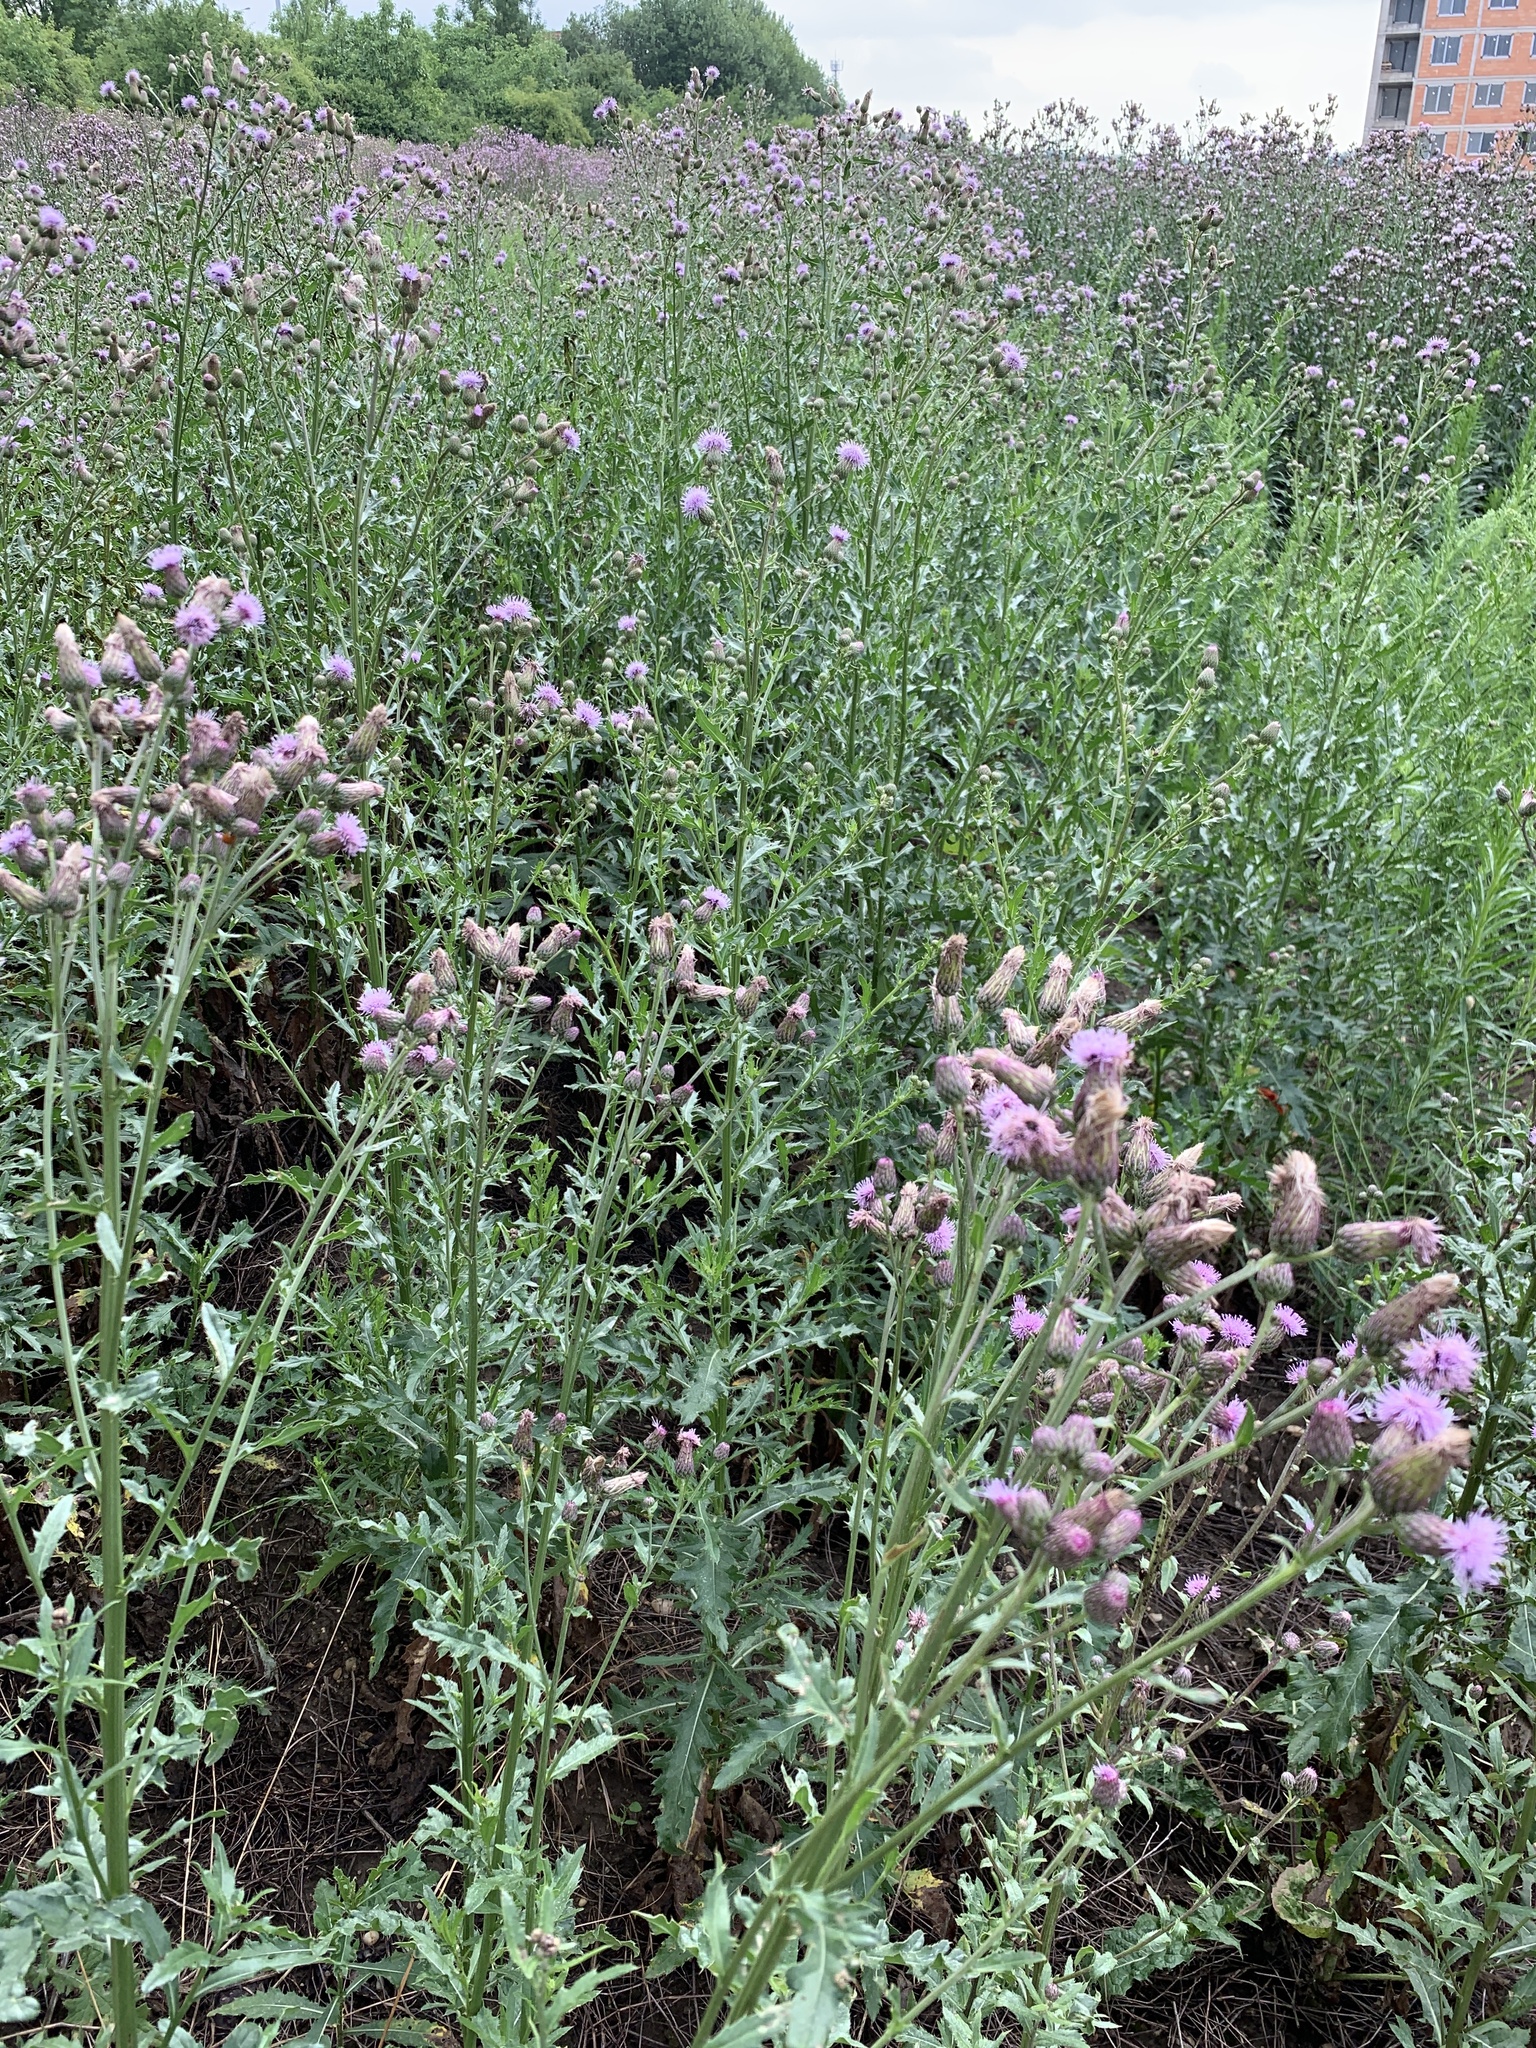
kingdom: Plantae
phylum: Tracheophyta
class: Magnoliopsida
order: Asterales
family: Asteraceae
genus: Cirsium
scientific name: Cirsium arvense
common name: Creeping thistle
